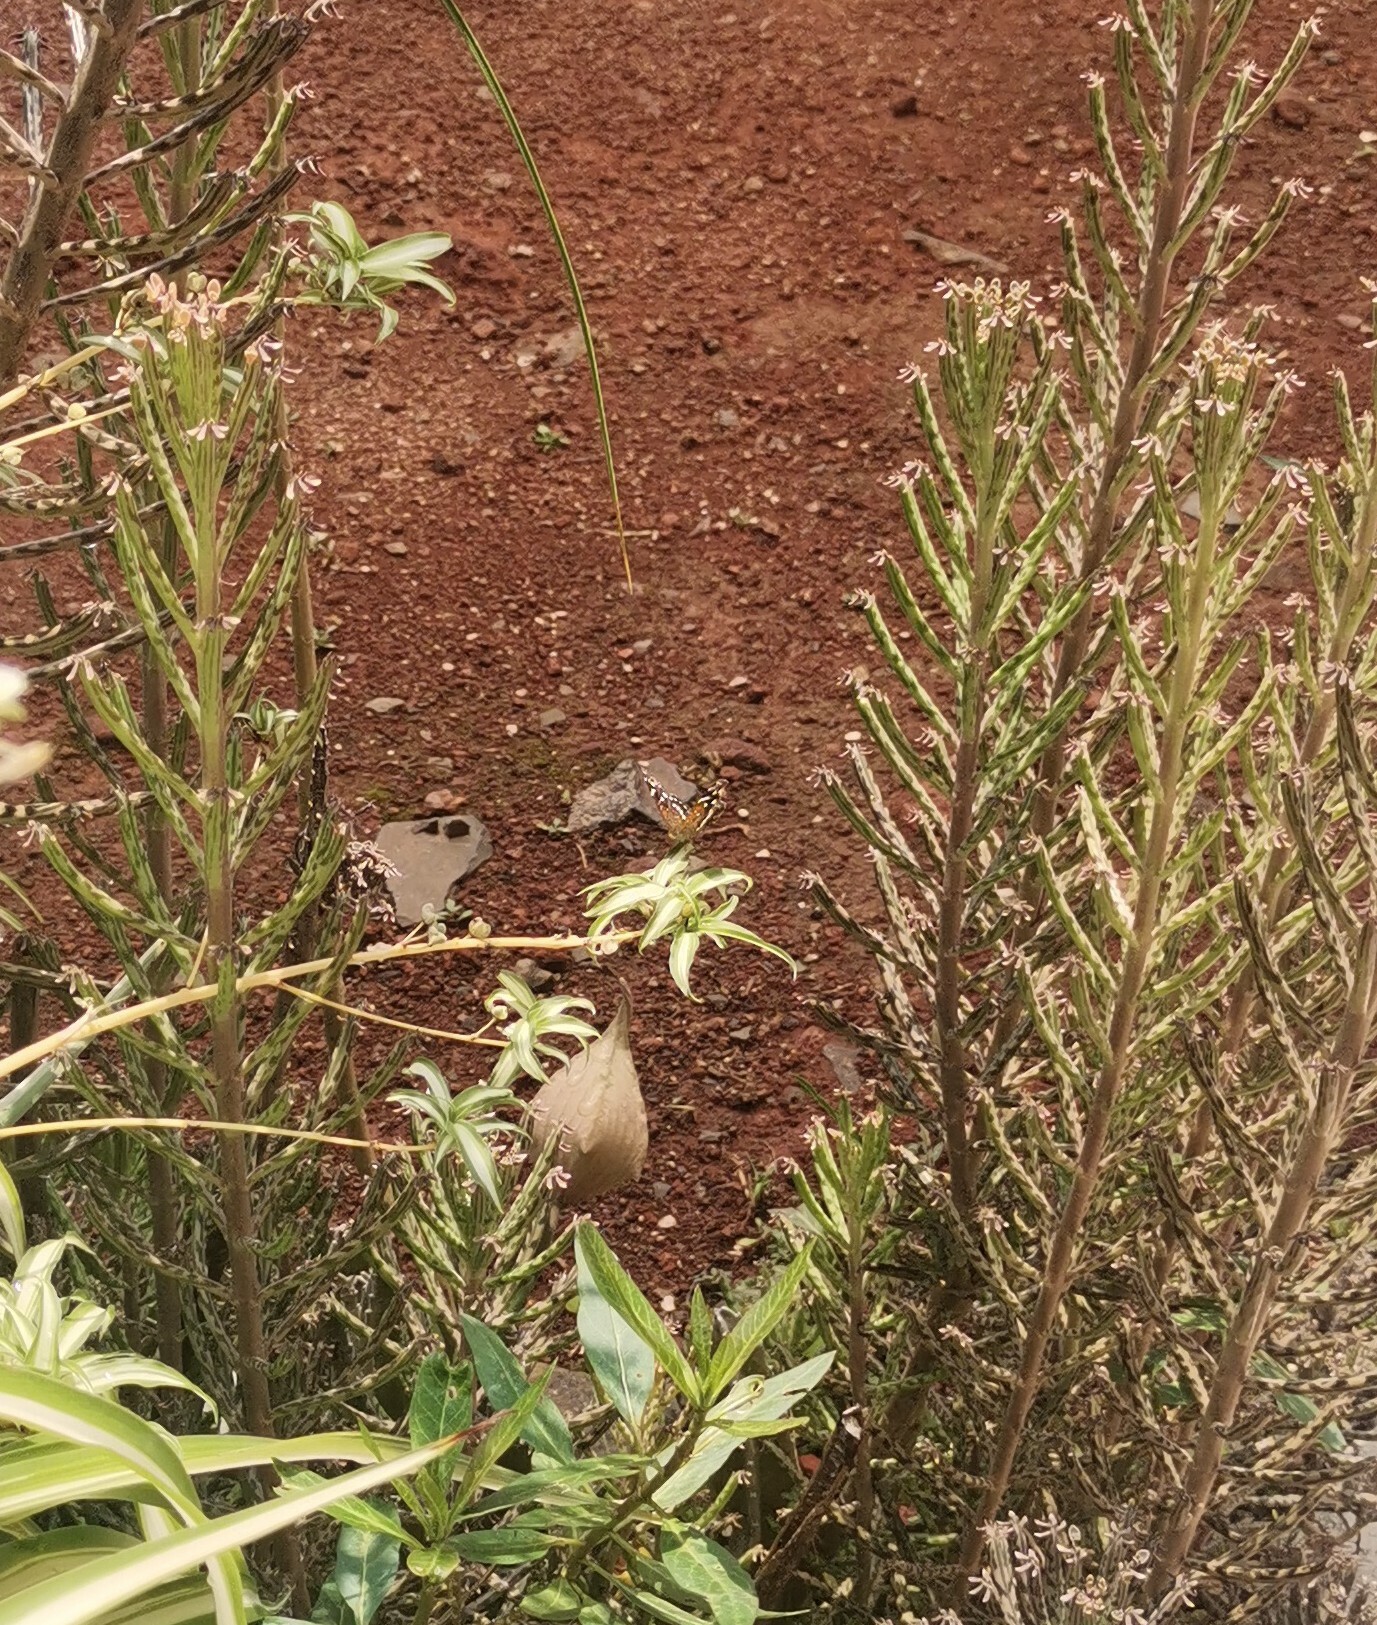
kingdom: Animalia
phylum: Arthropoda
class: Insecta
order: Lepidoptera
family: Nymphalidae
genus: Anthanassa
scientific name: Anthanassa texana
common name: Texan crescent
